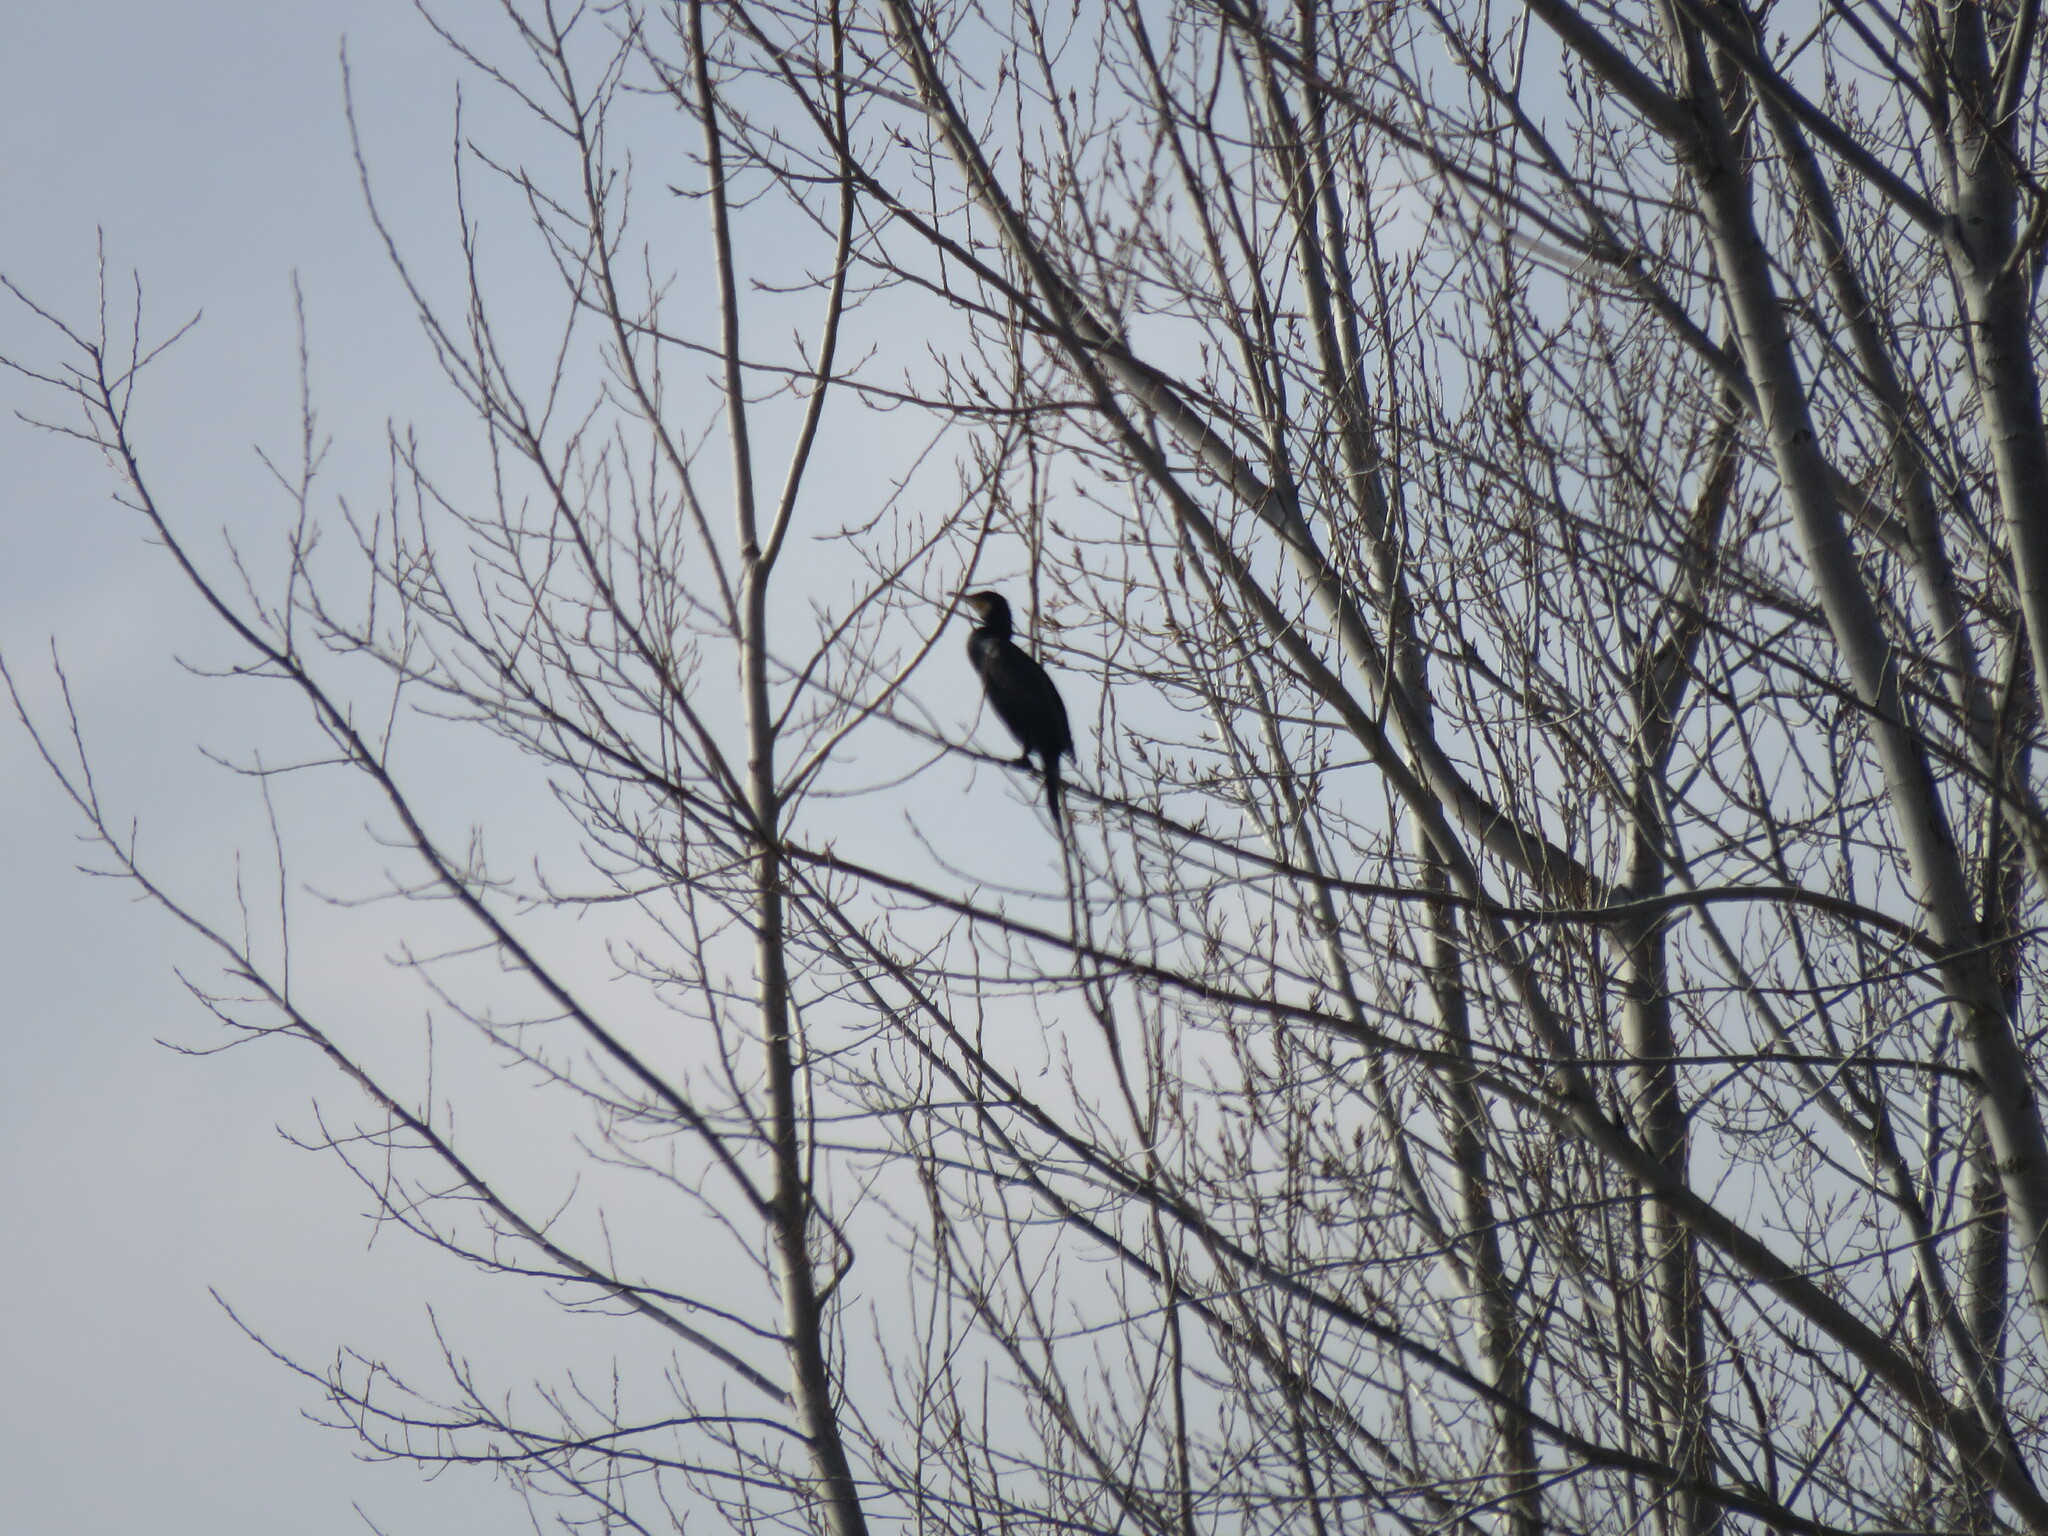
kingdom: Animalia
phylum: Chordata
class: Aves
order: Suliformes
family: Phalacrocoracidae
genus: Phalacrocorax
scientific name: Phalacrocorax carbo
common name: Great cormorant
